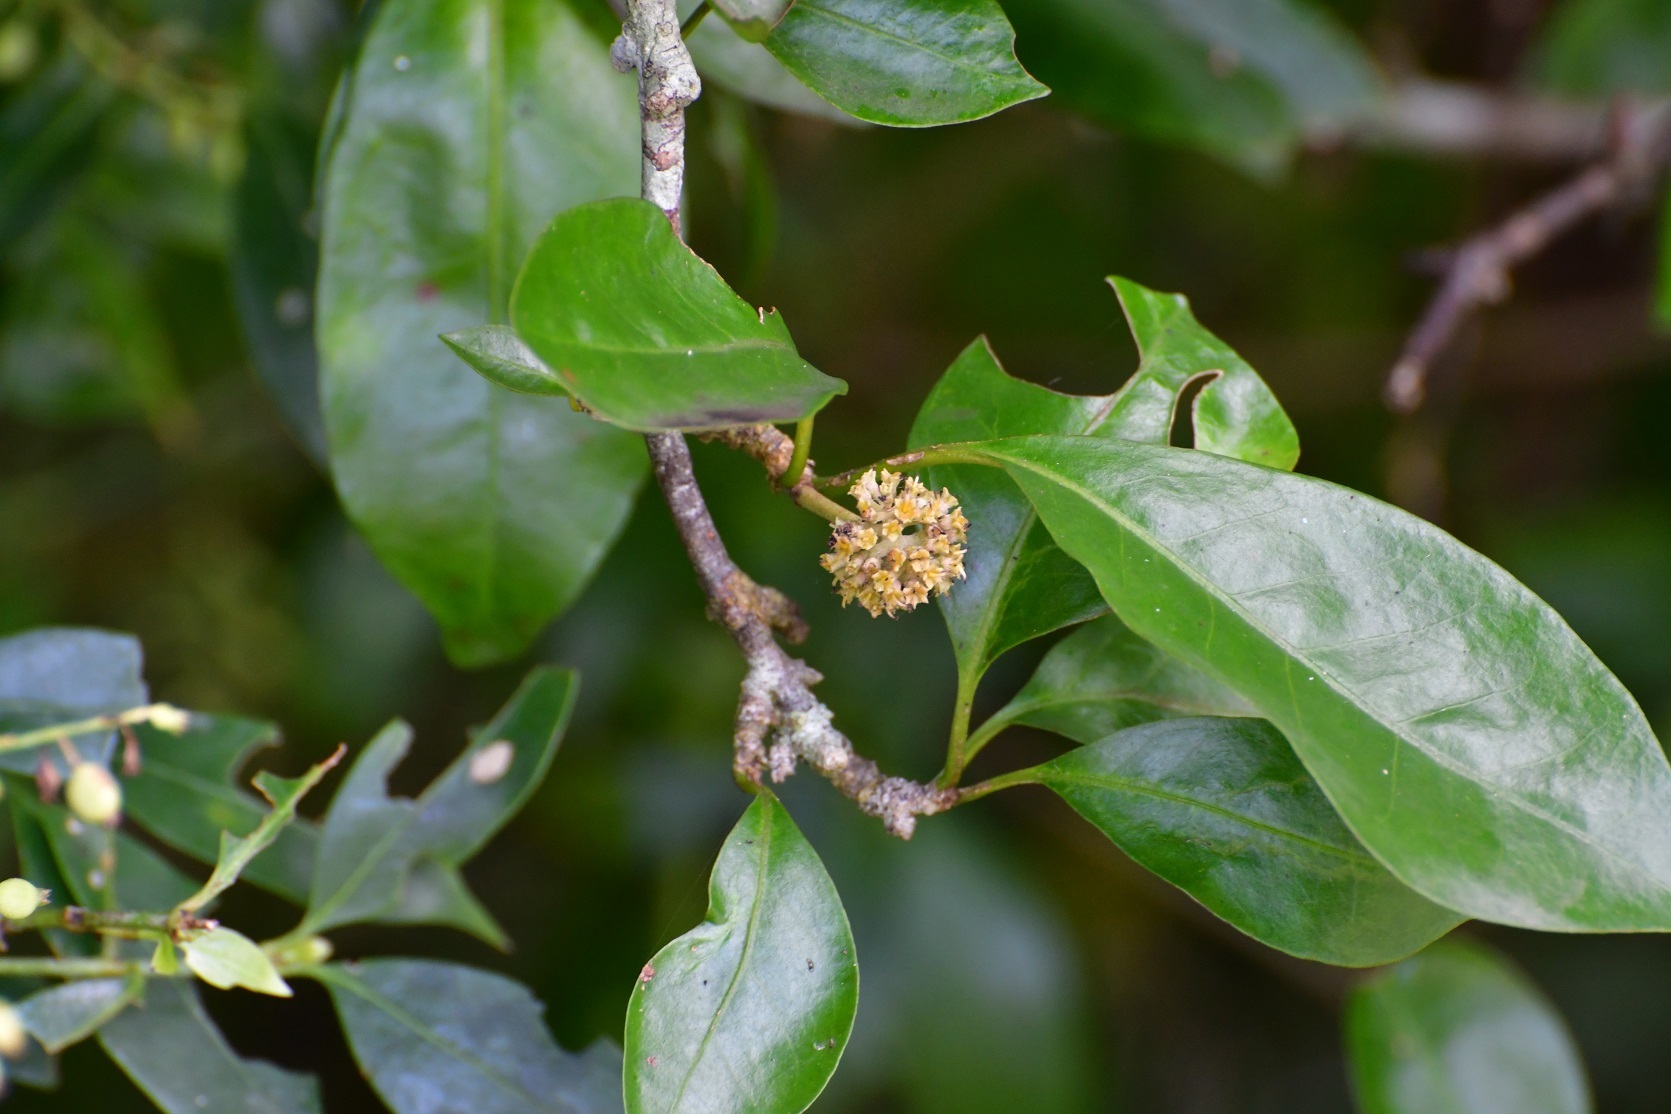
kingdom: Plantae
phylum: Tracheophyta
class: Magnoliopsida
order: Caryophyllales
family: Nyctaginaceae
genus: Grajalesia
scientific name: Grajalesia fasciculata
